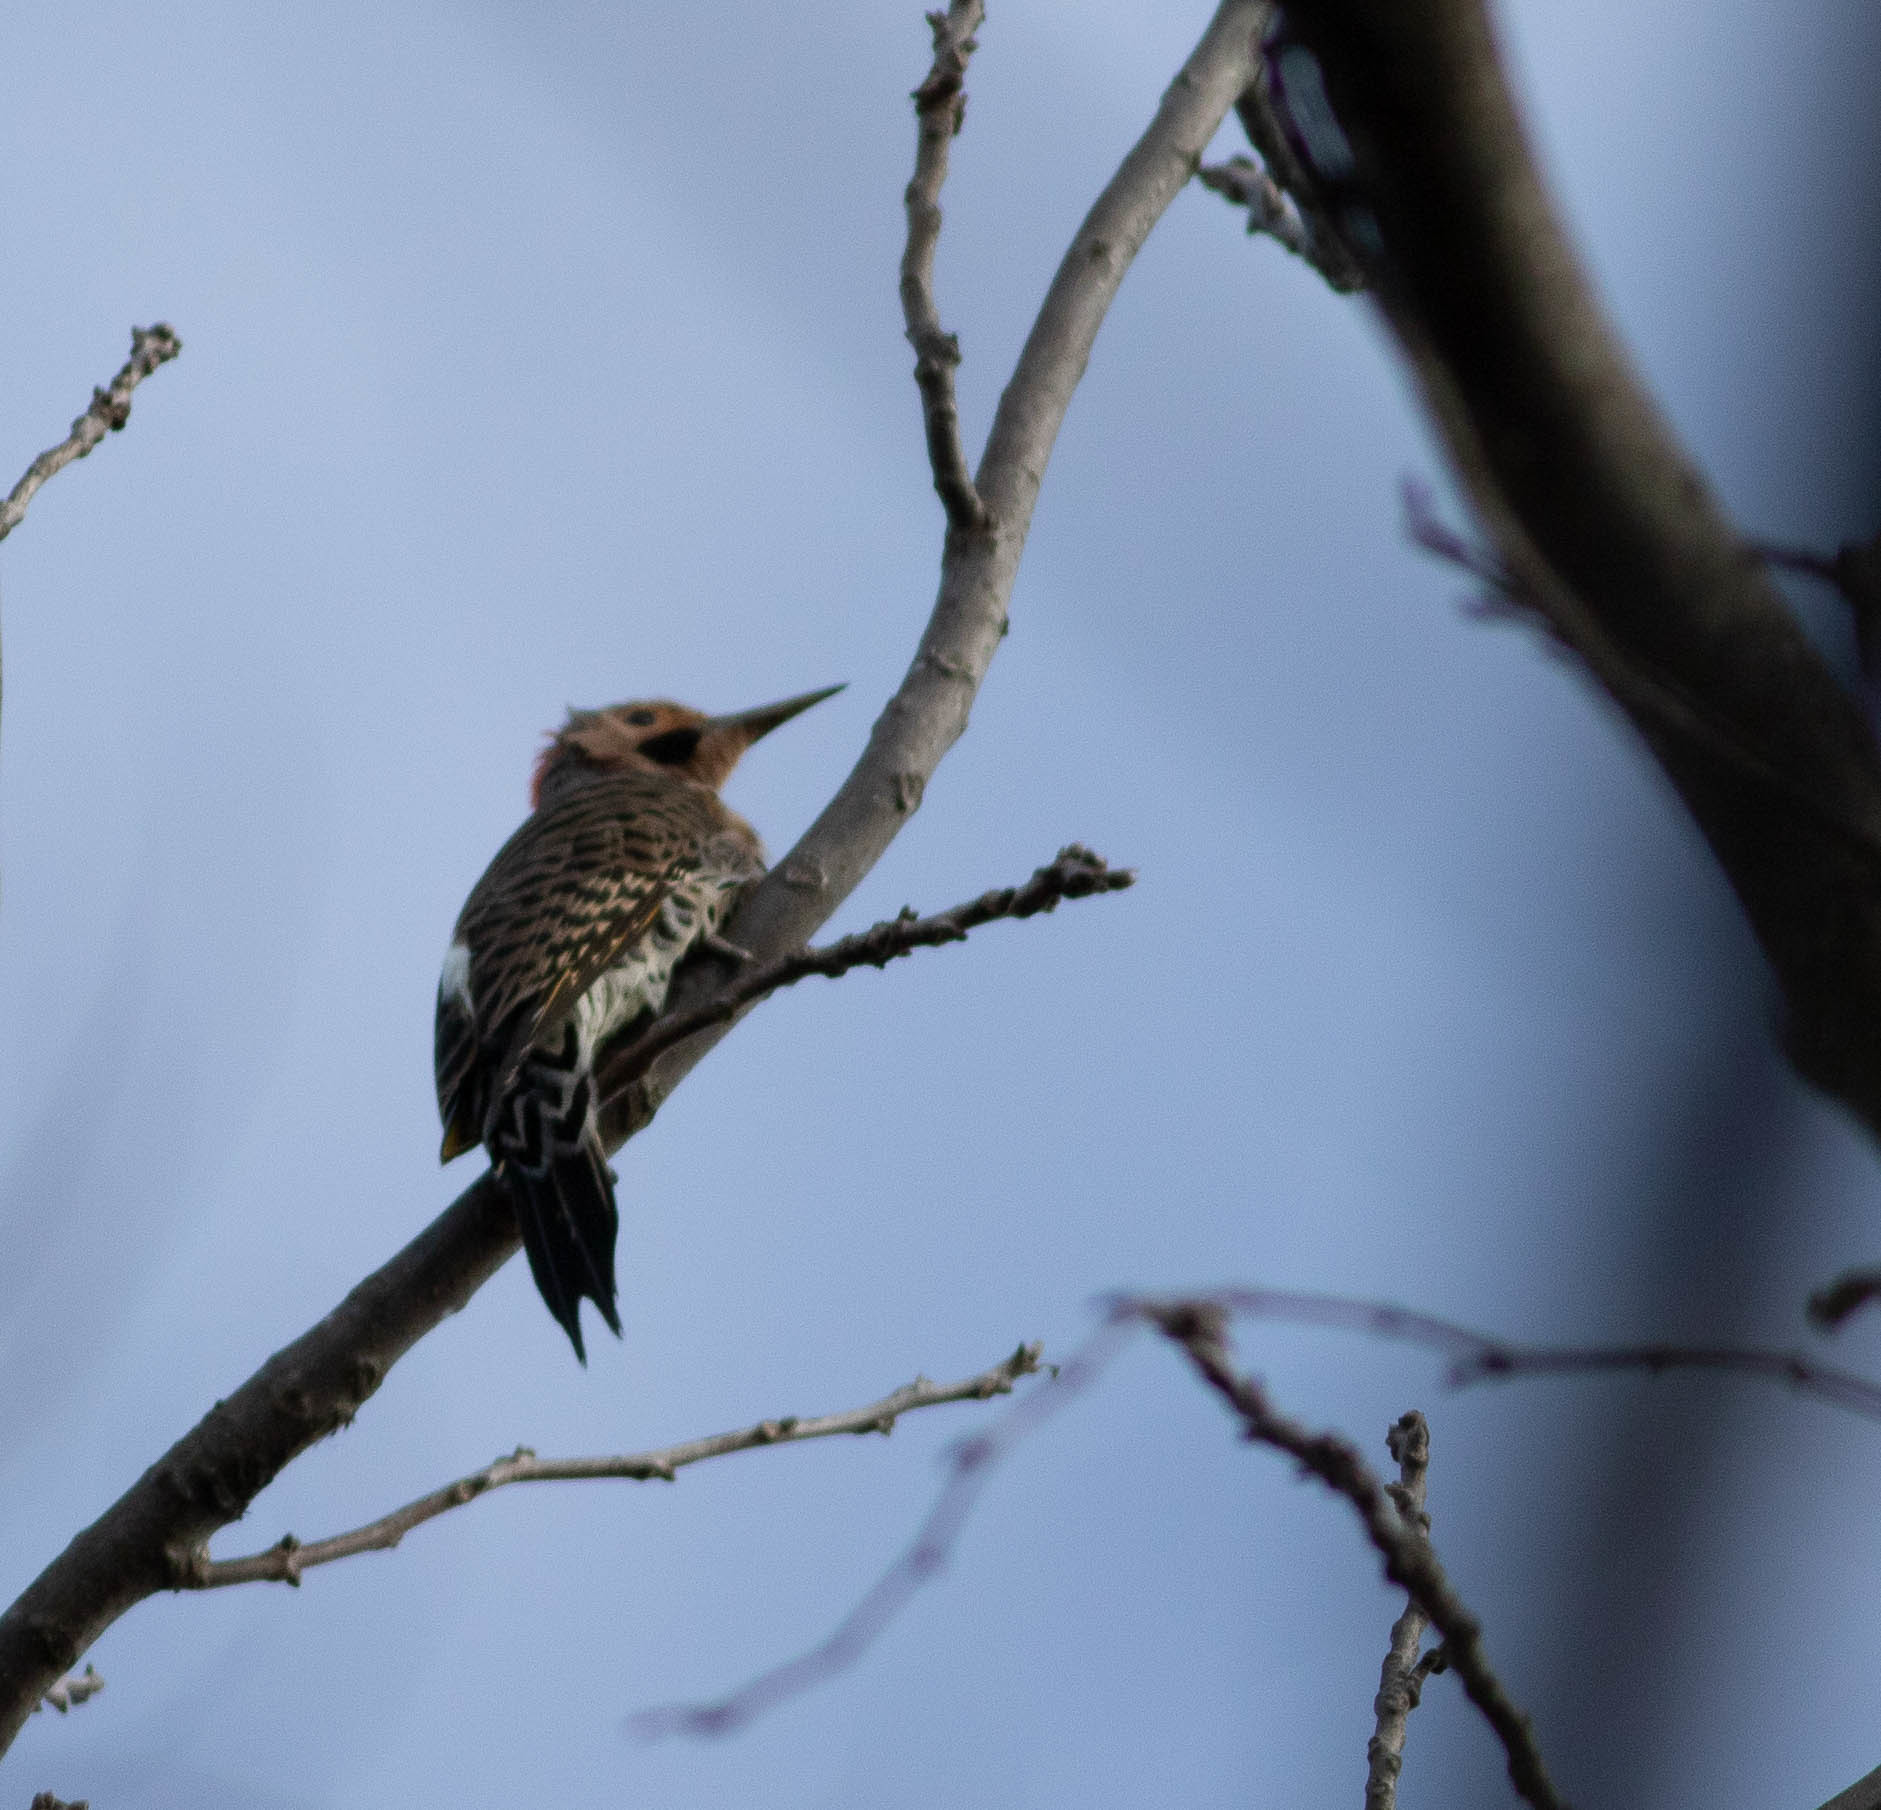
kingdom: Animalia
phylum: Chordata
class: Aves
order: Piciformes
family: Picidae
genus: Colaptes
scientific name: Colaptes auratus
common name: Northern flicker
